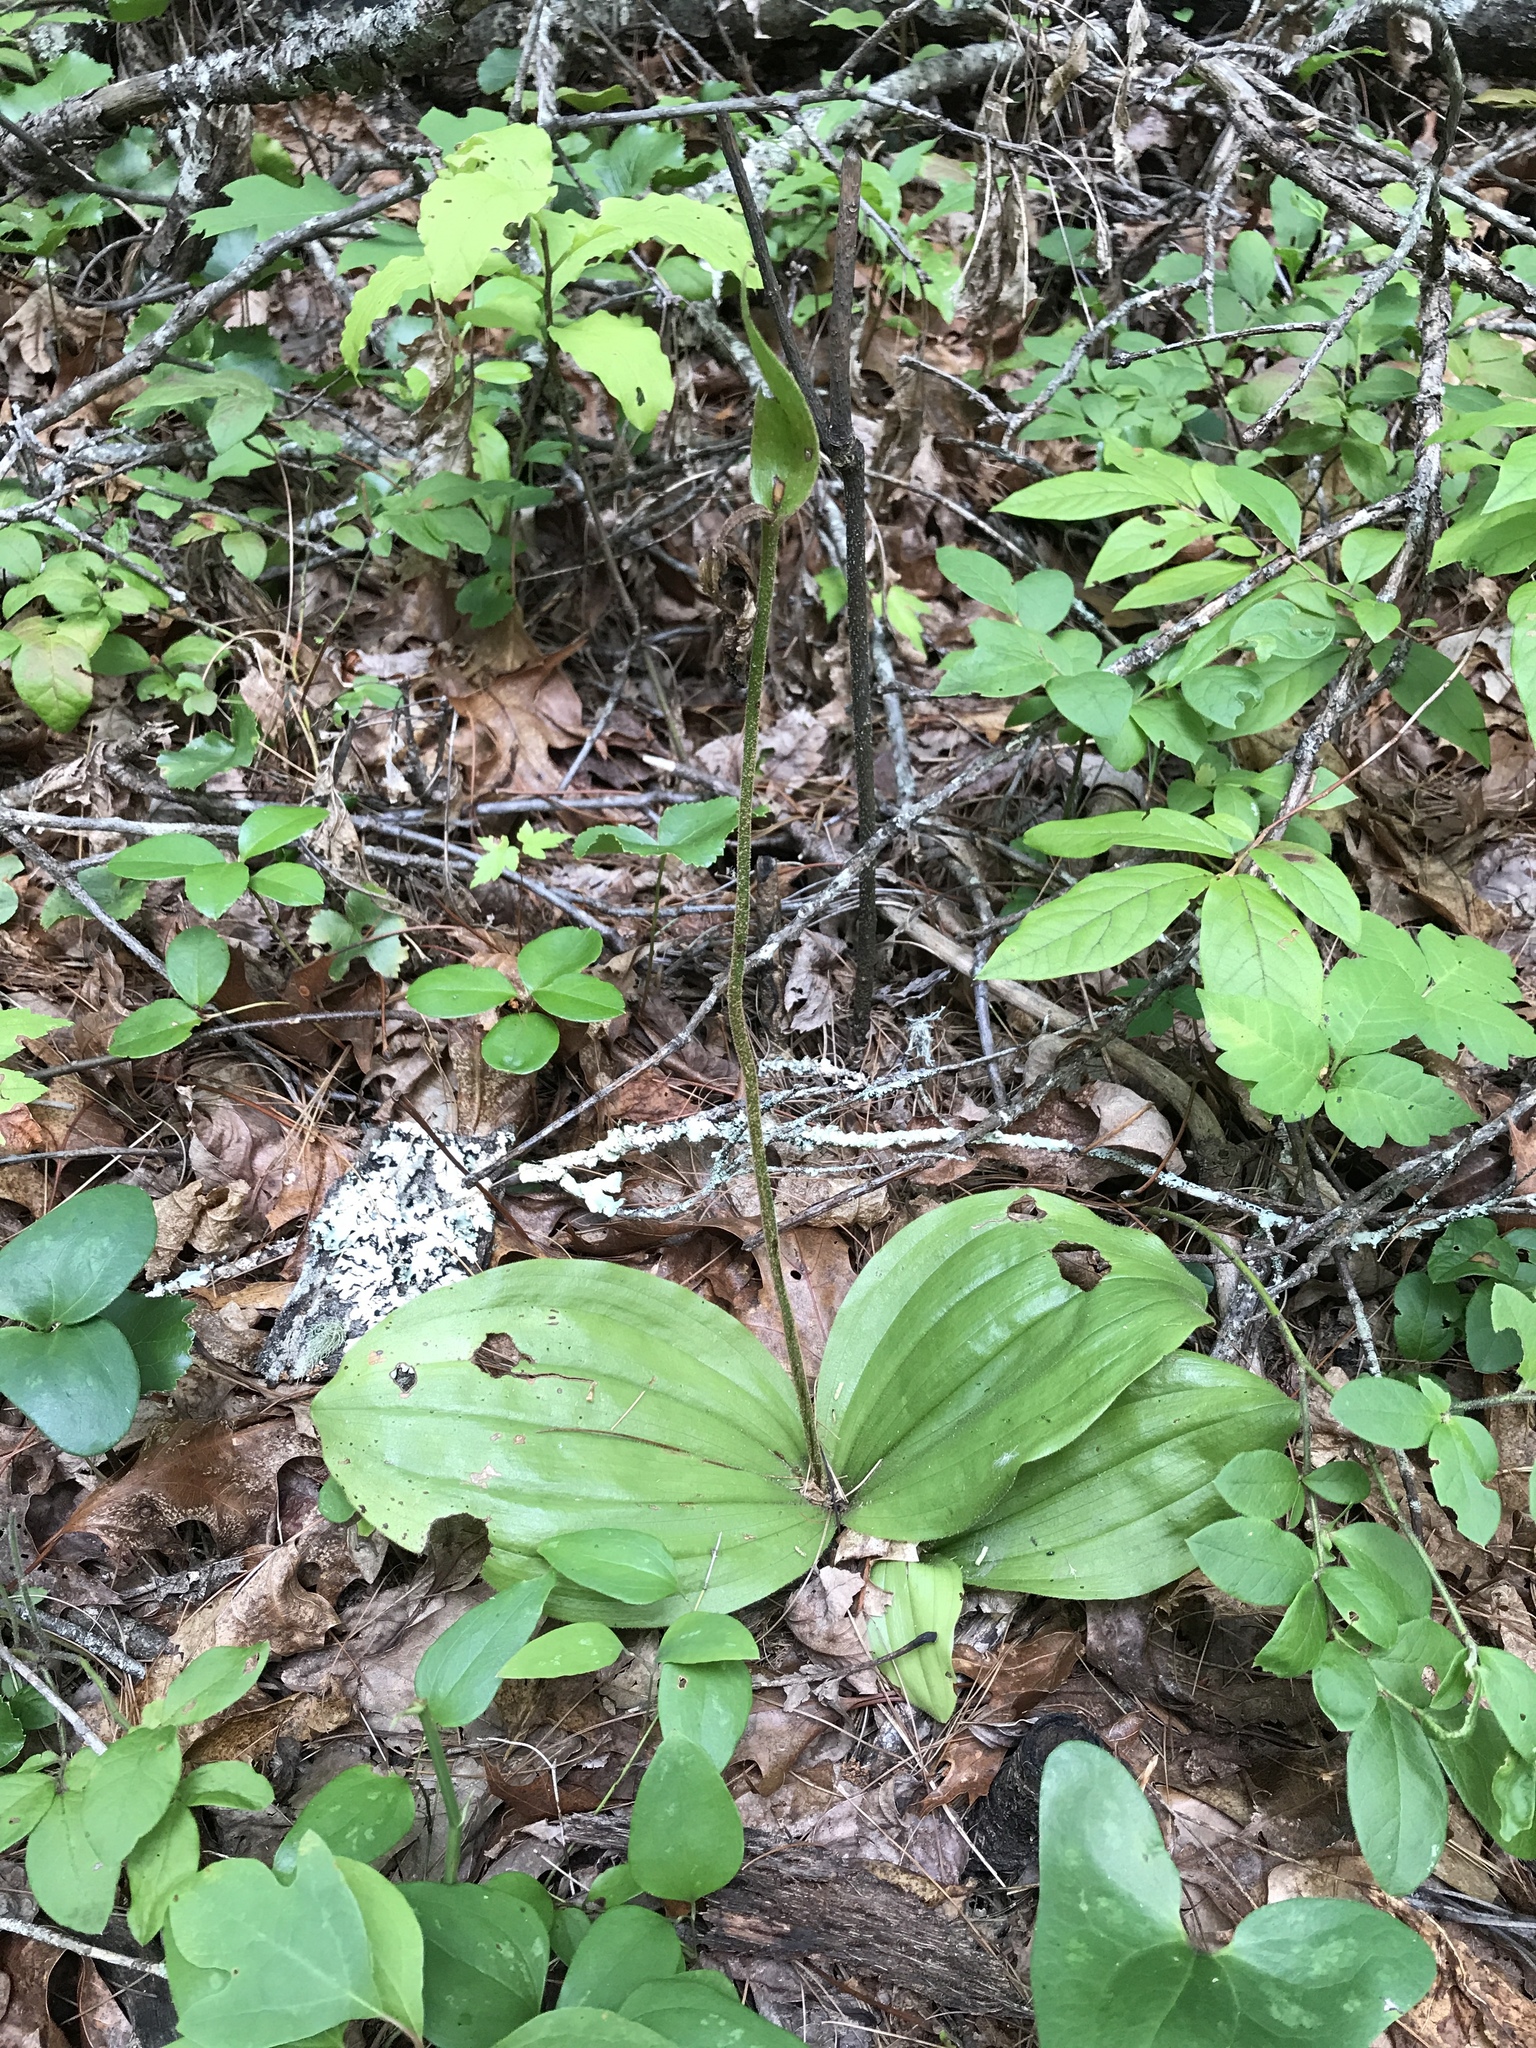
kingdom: Plantae
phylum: Tracheophyta
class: Liliopsida
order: Asparagales
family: Orchidaceae
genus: Cypripedium
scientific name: Cypripedium acaule
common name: Pink lady's-slipper
